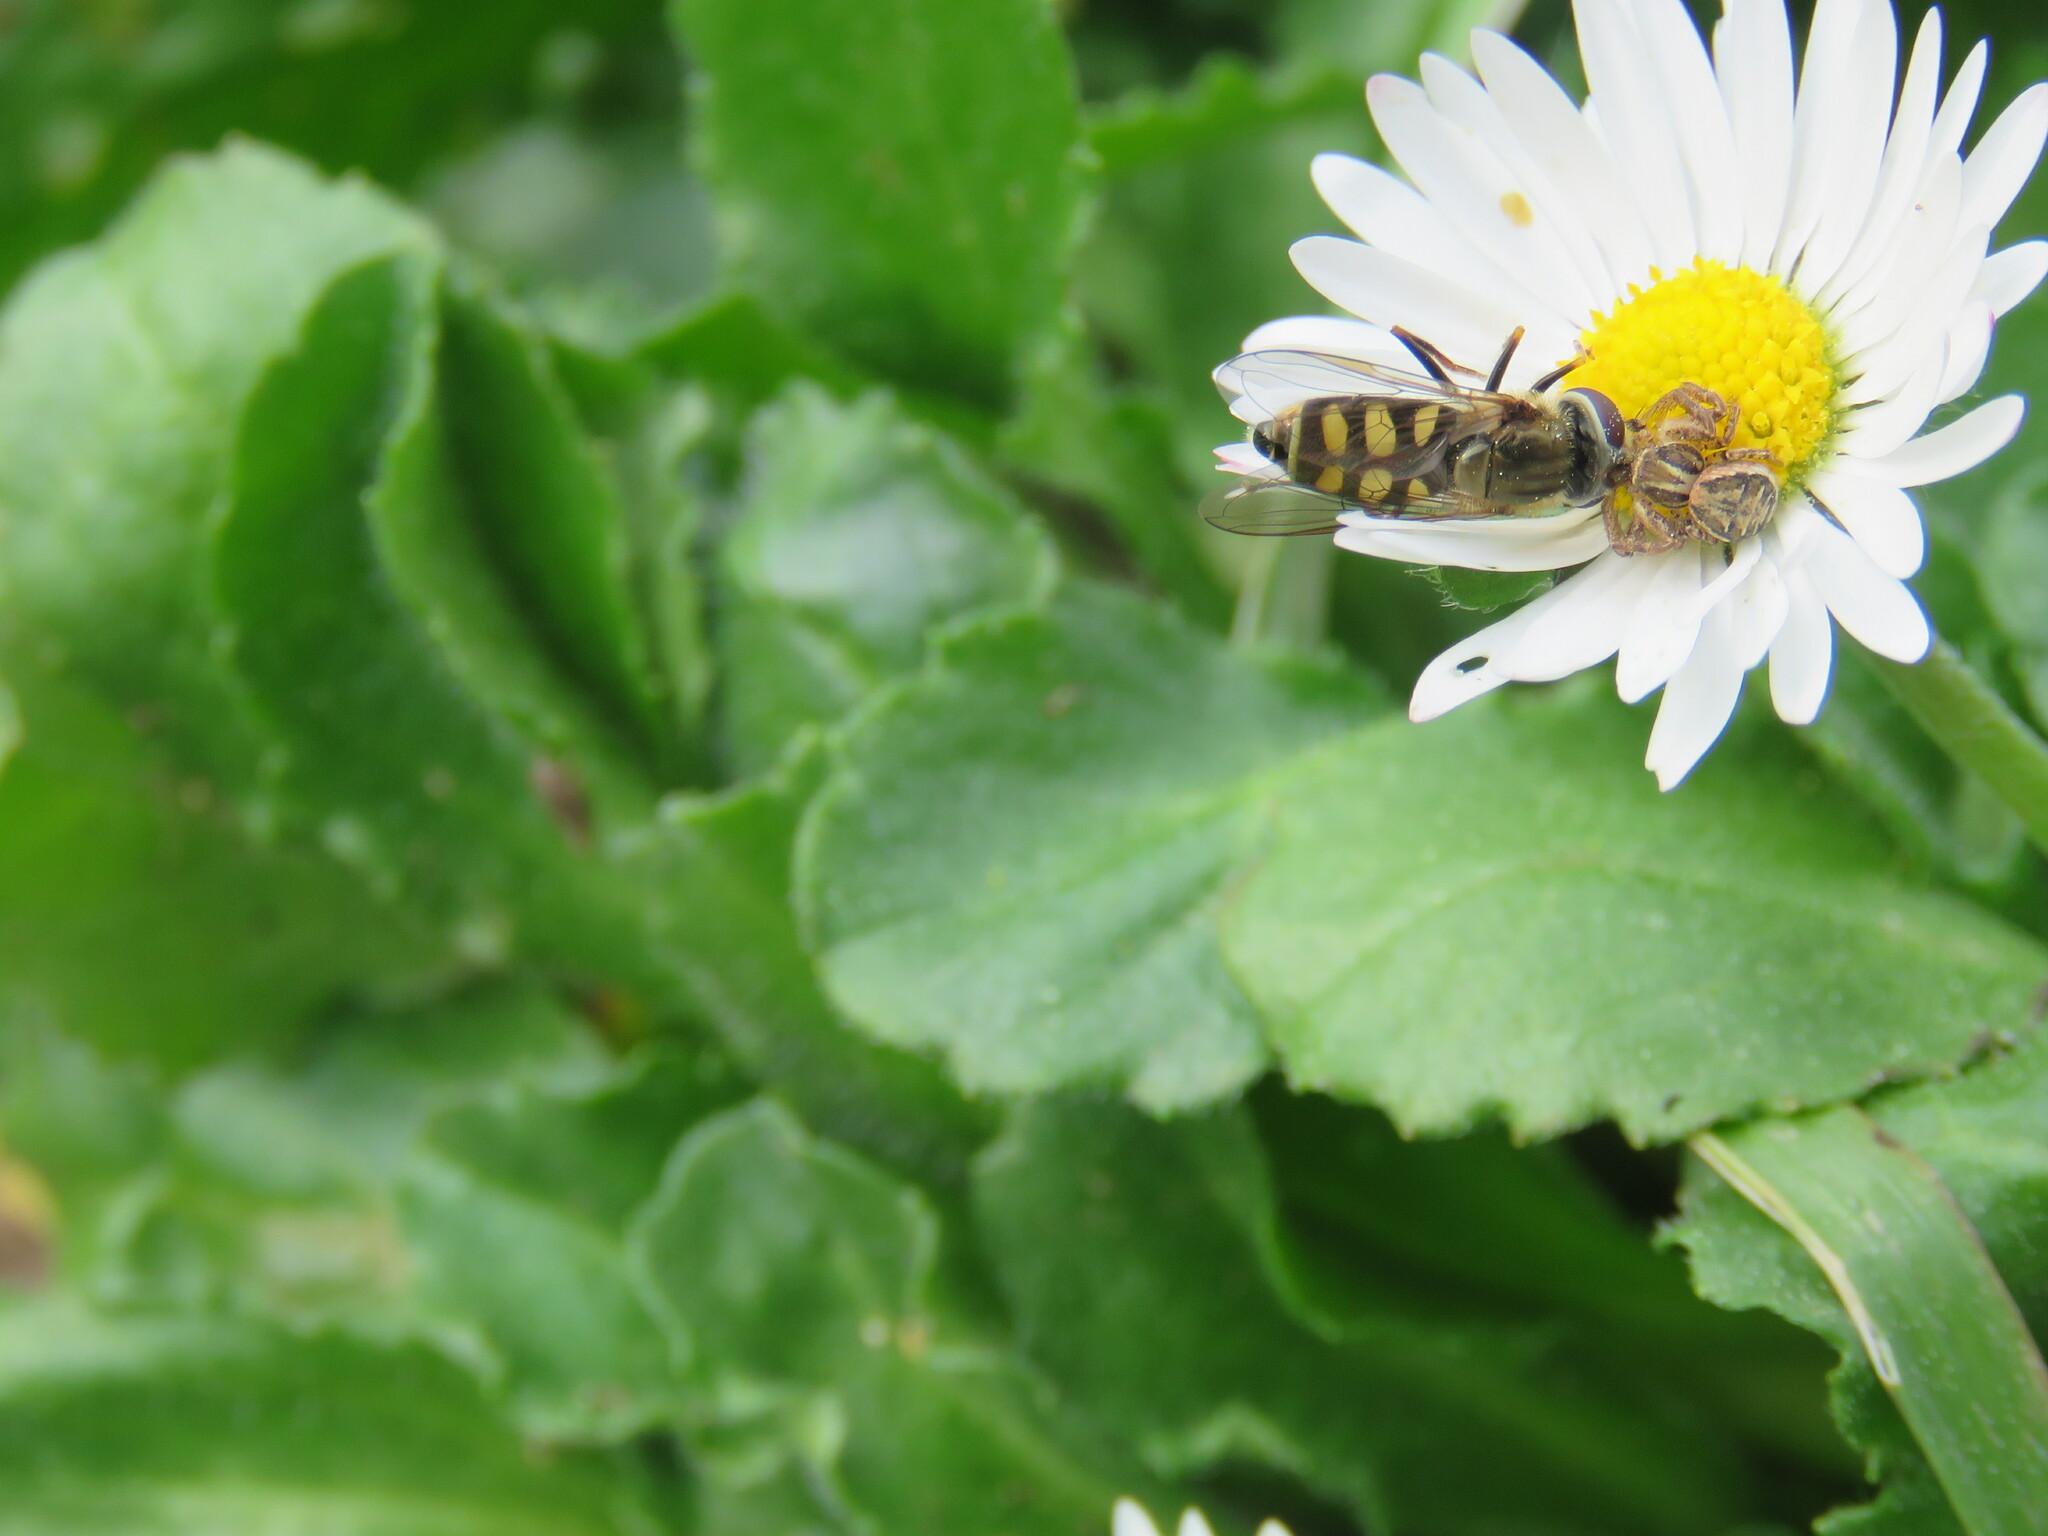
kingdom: Animalia
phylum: Arthropoda
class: Insecta
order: Diptera
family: Syrphidae
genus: Eupeodes
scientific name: Eupeodes corollae
